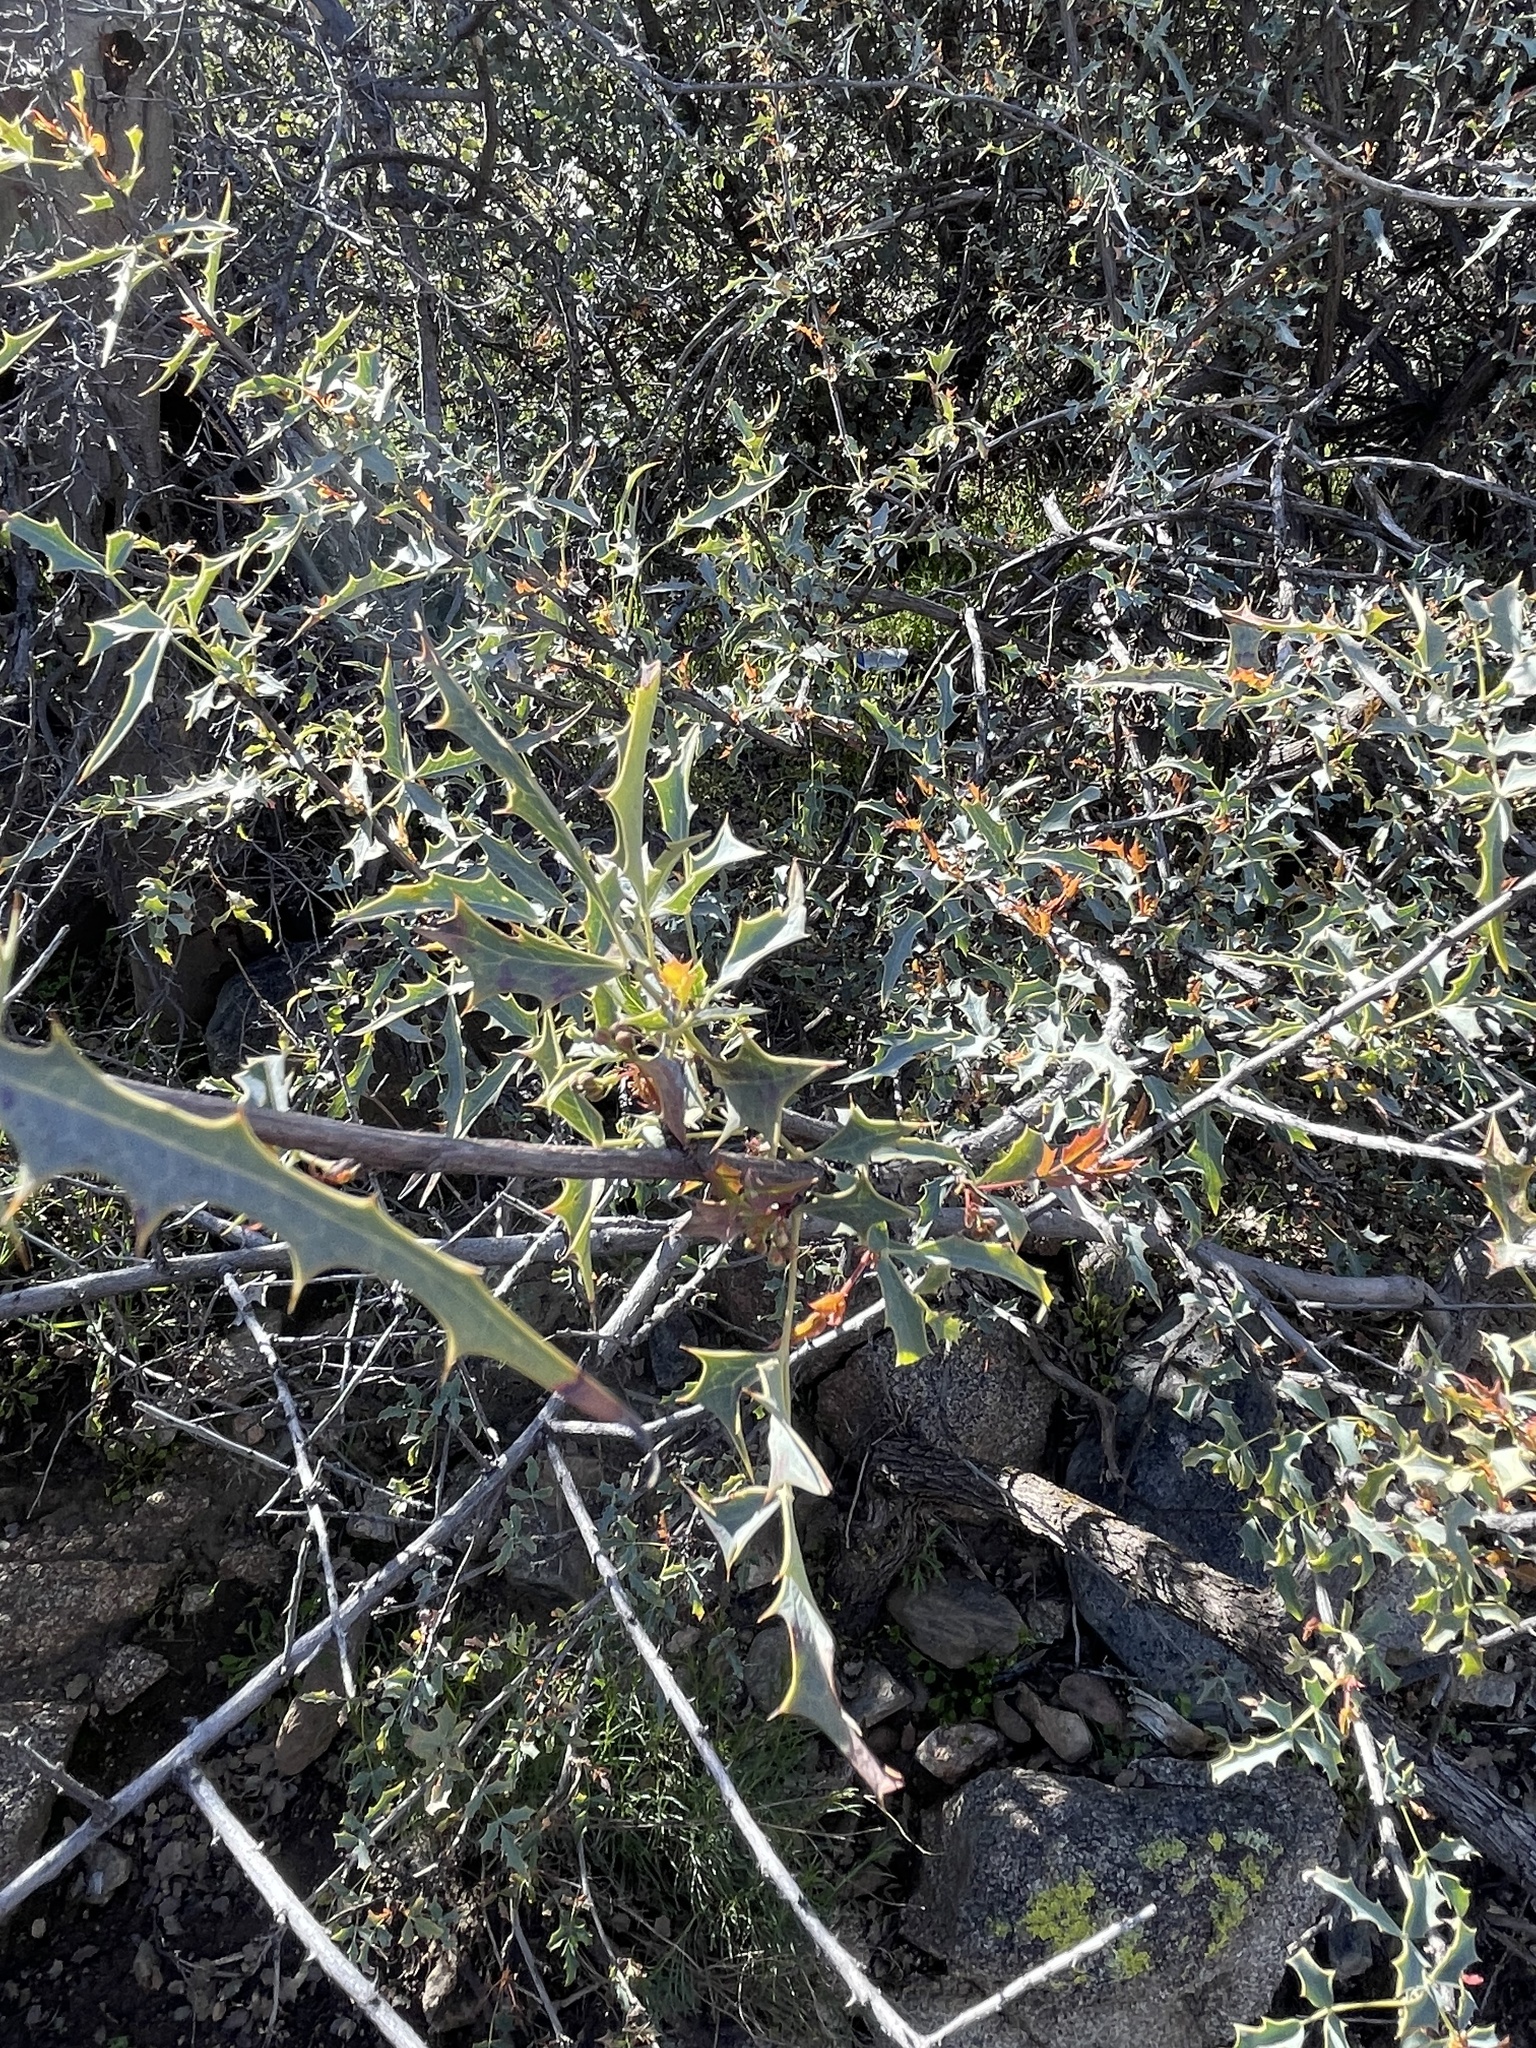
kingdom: Plantae
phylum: Tracheophyta
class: Magnoliopsida
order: Ranunculales
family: Berberidaceae
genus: Alloberberis
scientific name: Alloberberis haematocarpa
